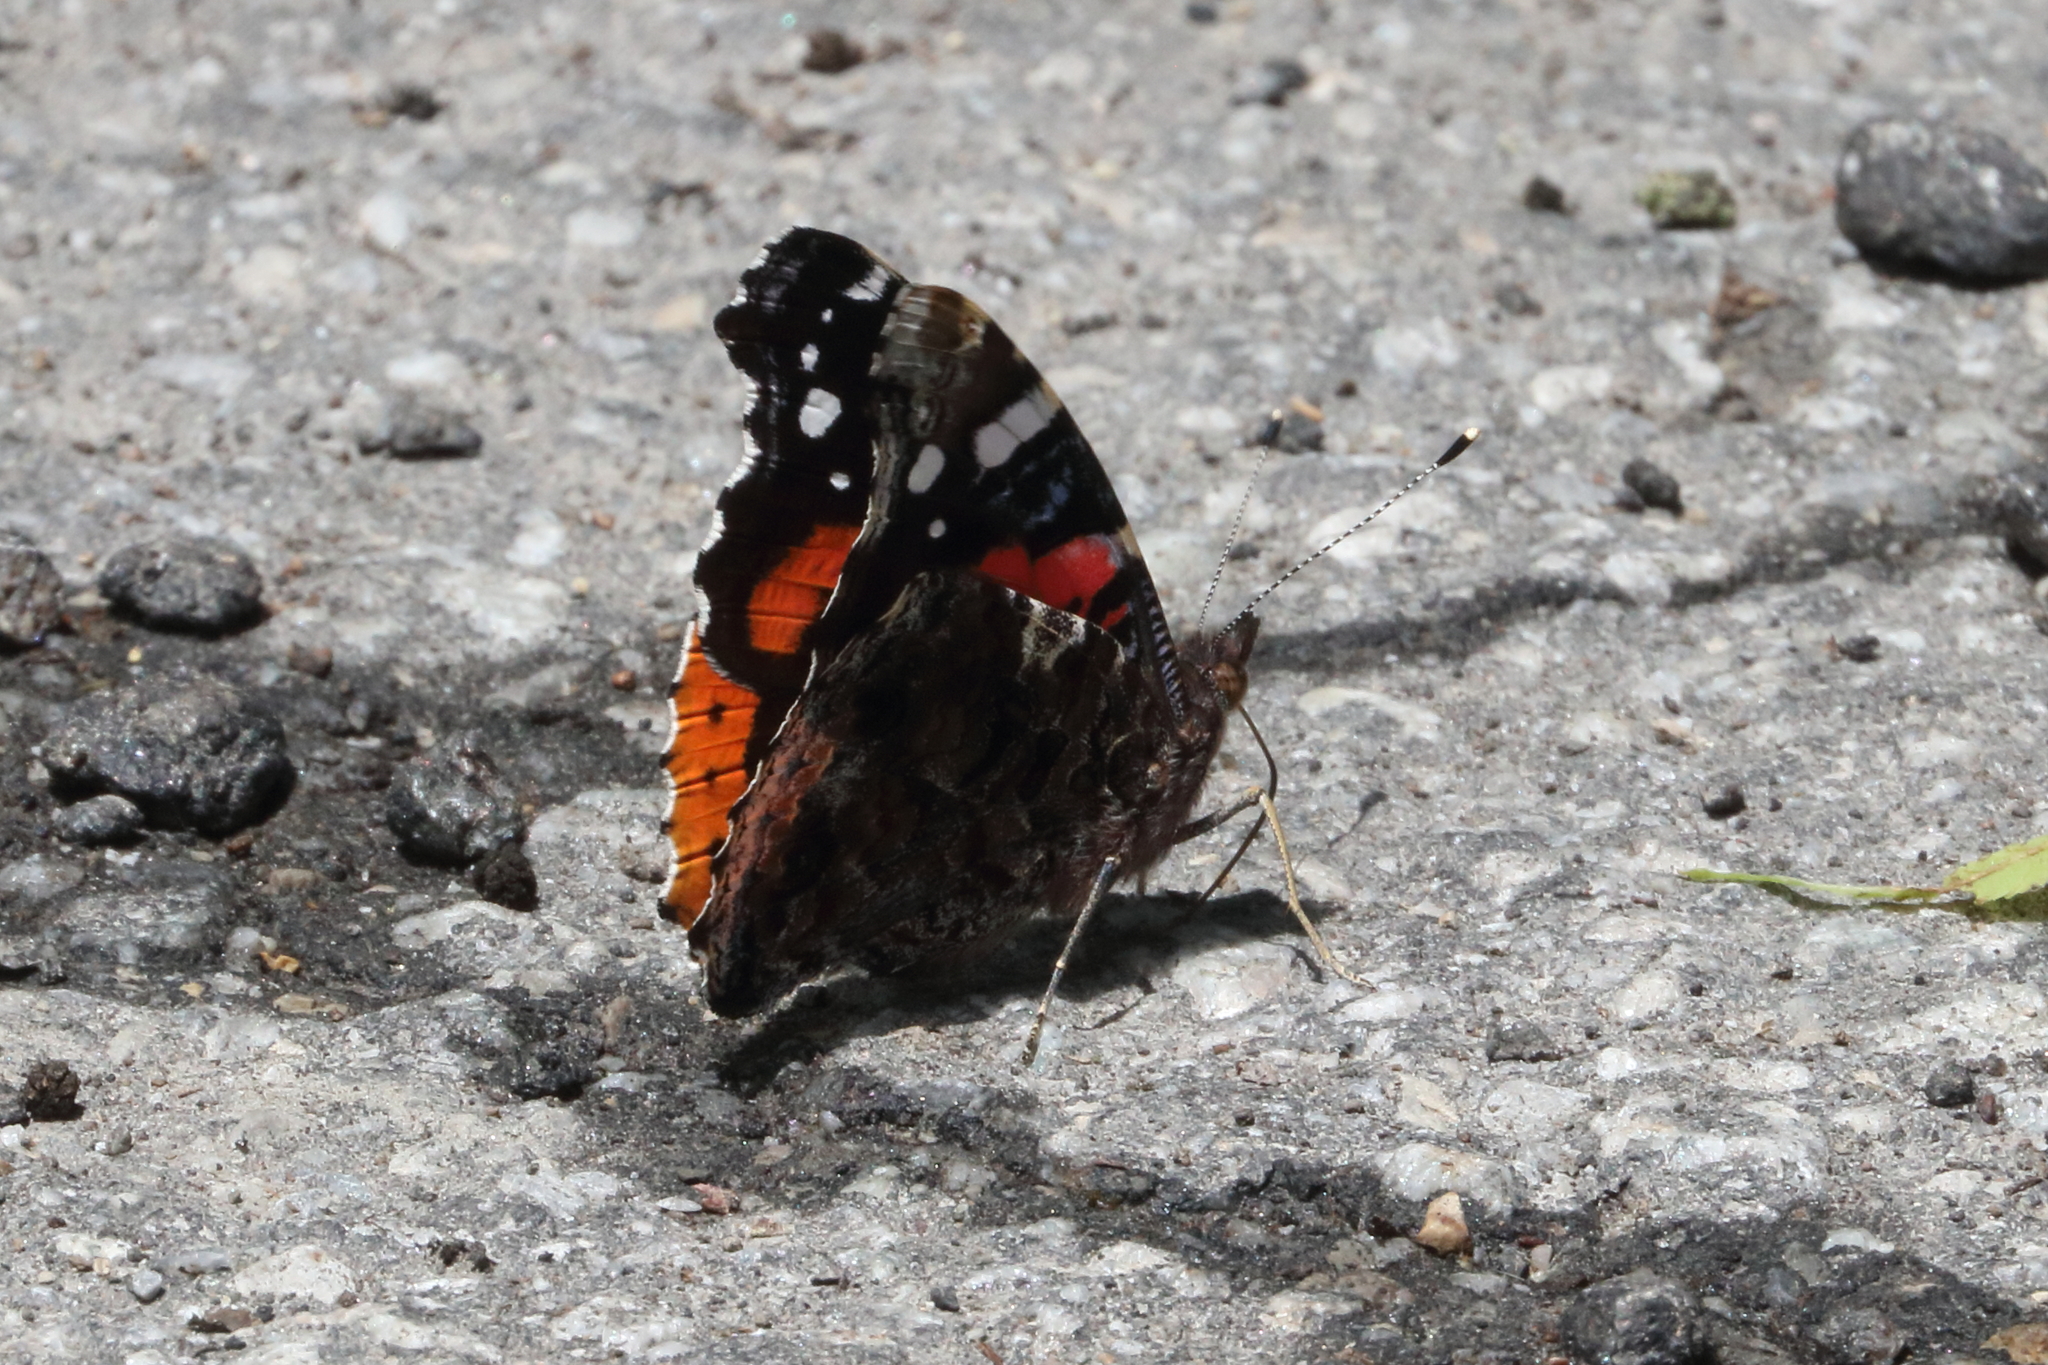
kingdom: Animalia
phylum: Arthropoda
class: Insecta
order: Lepidoptera
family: Nymphalidae
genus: Vanessa
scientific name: Vanessa atalanta
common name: Red admiral
